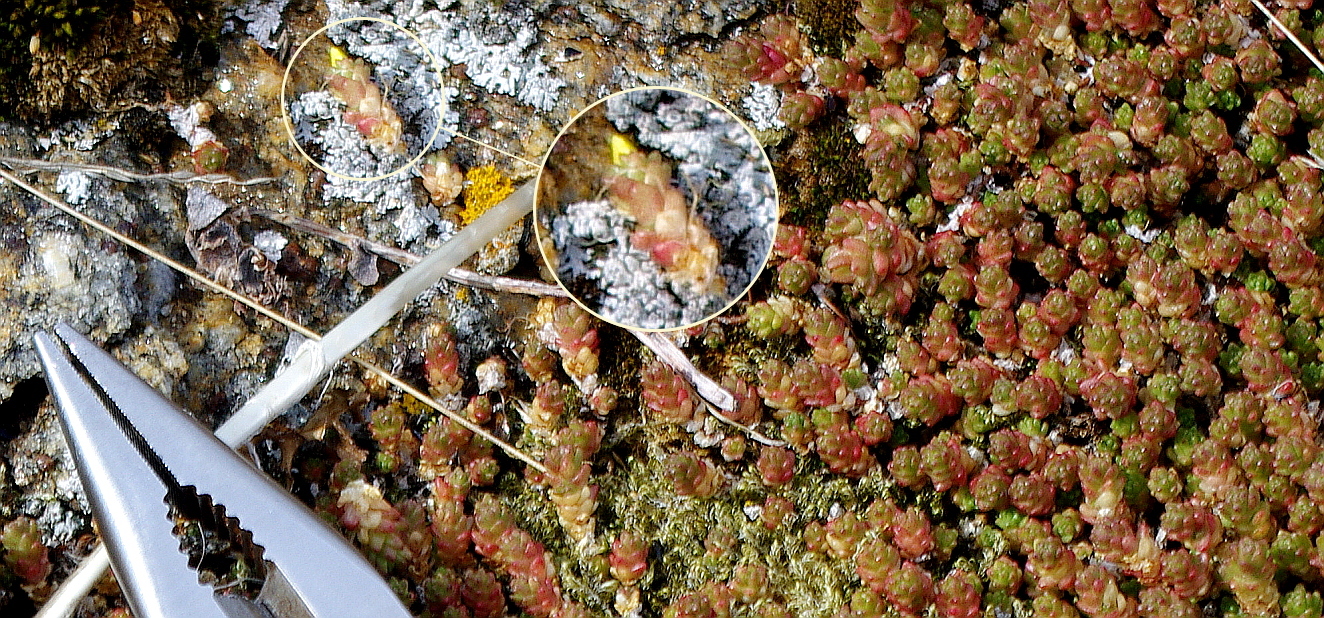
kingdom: Plantae
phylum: Tracheophyta
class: Magnoliopsida
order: Saxifragales
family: Crassulaceae
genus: Sedum
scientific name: Sedum acre
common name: Biting stonecrop
